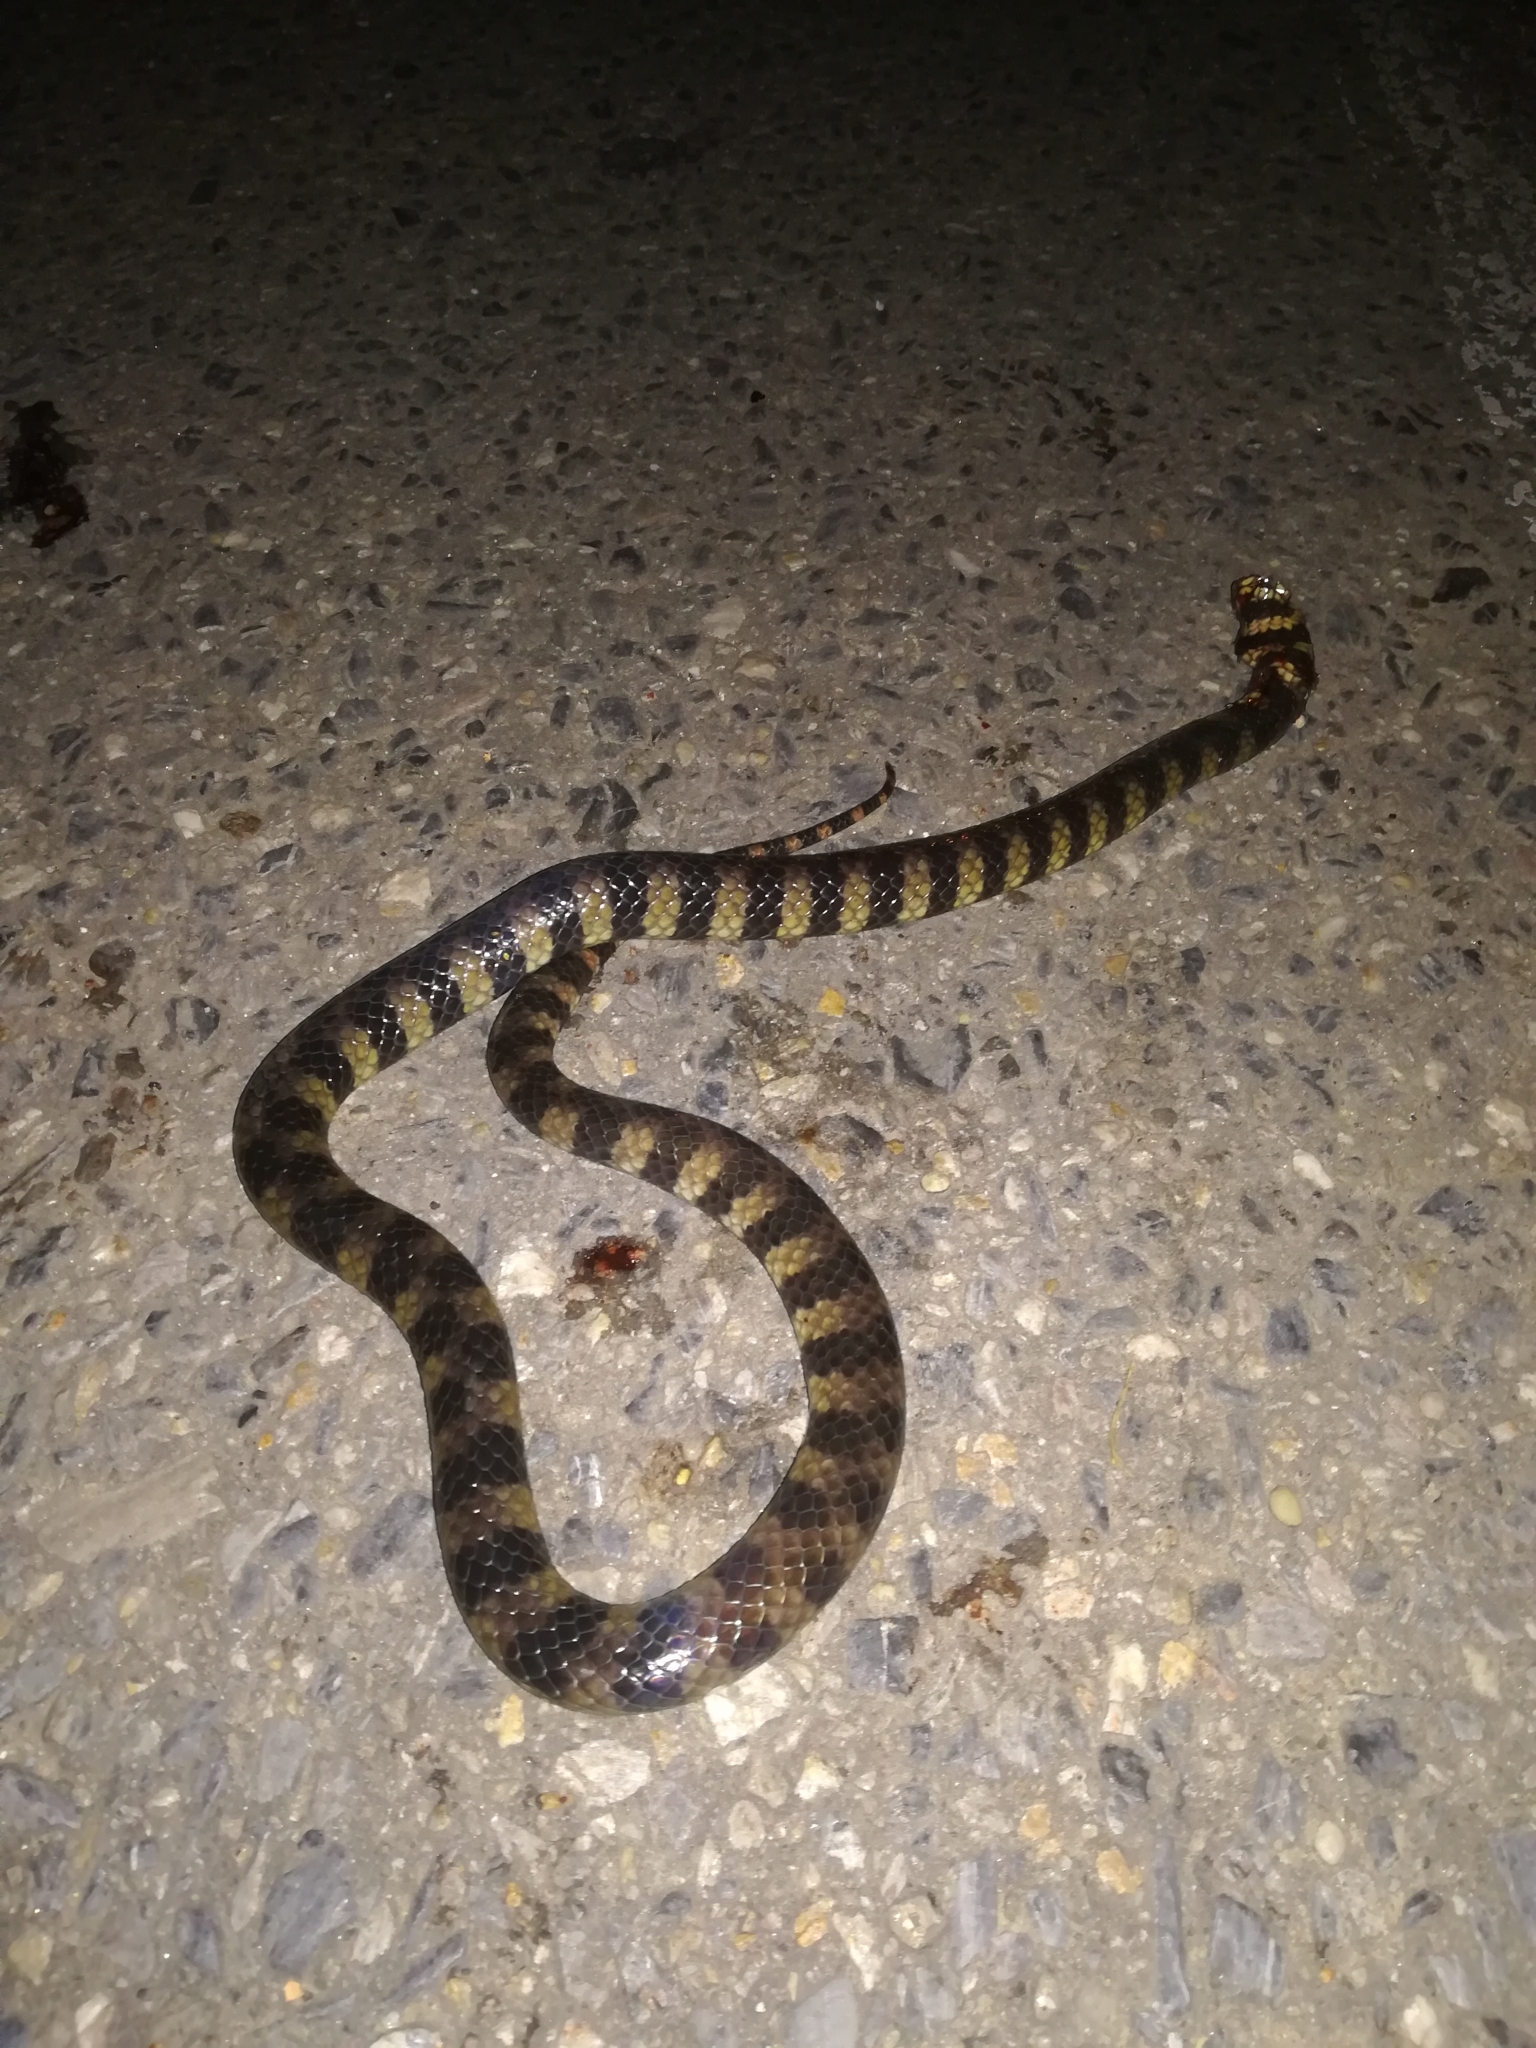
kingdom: Animalia
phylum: Chordata
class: Squamata
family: Colubridae
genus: Hydrops
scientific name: Hydrops triangularis
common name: Triangle water snake
